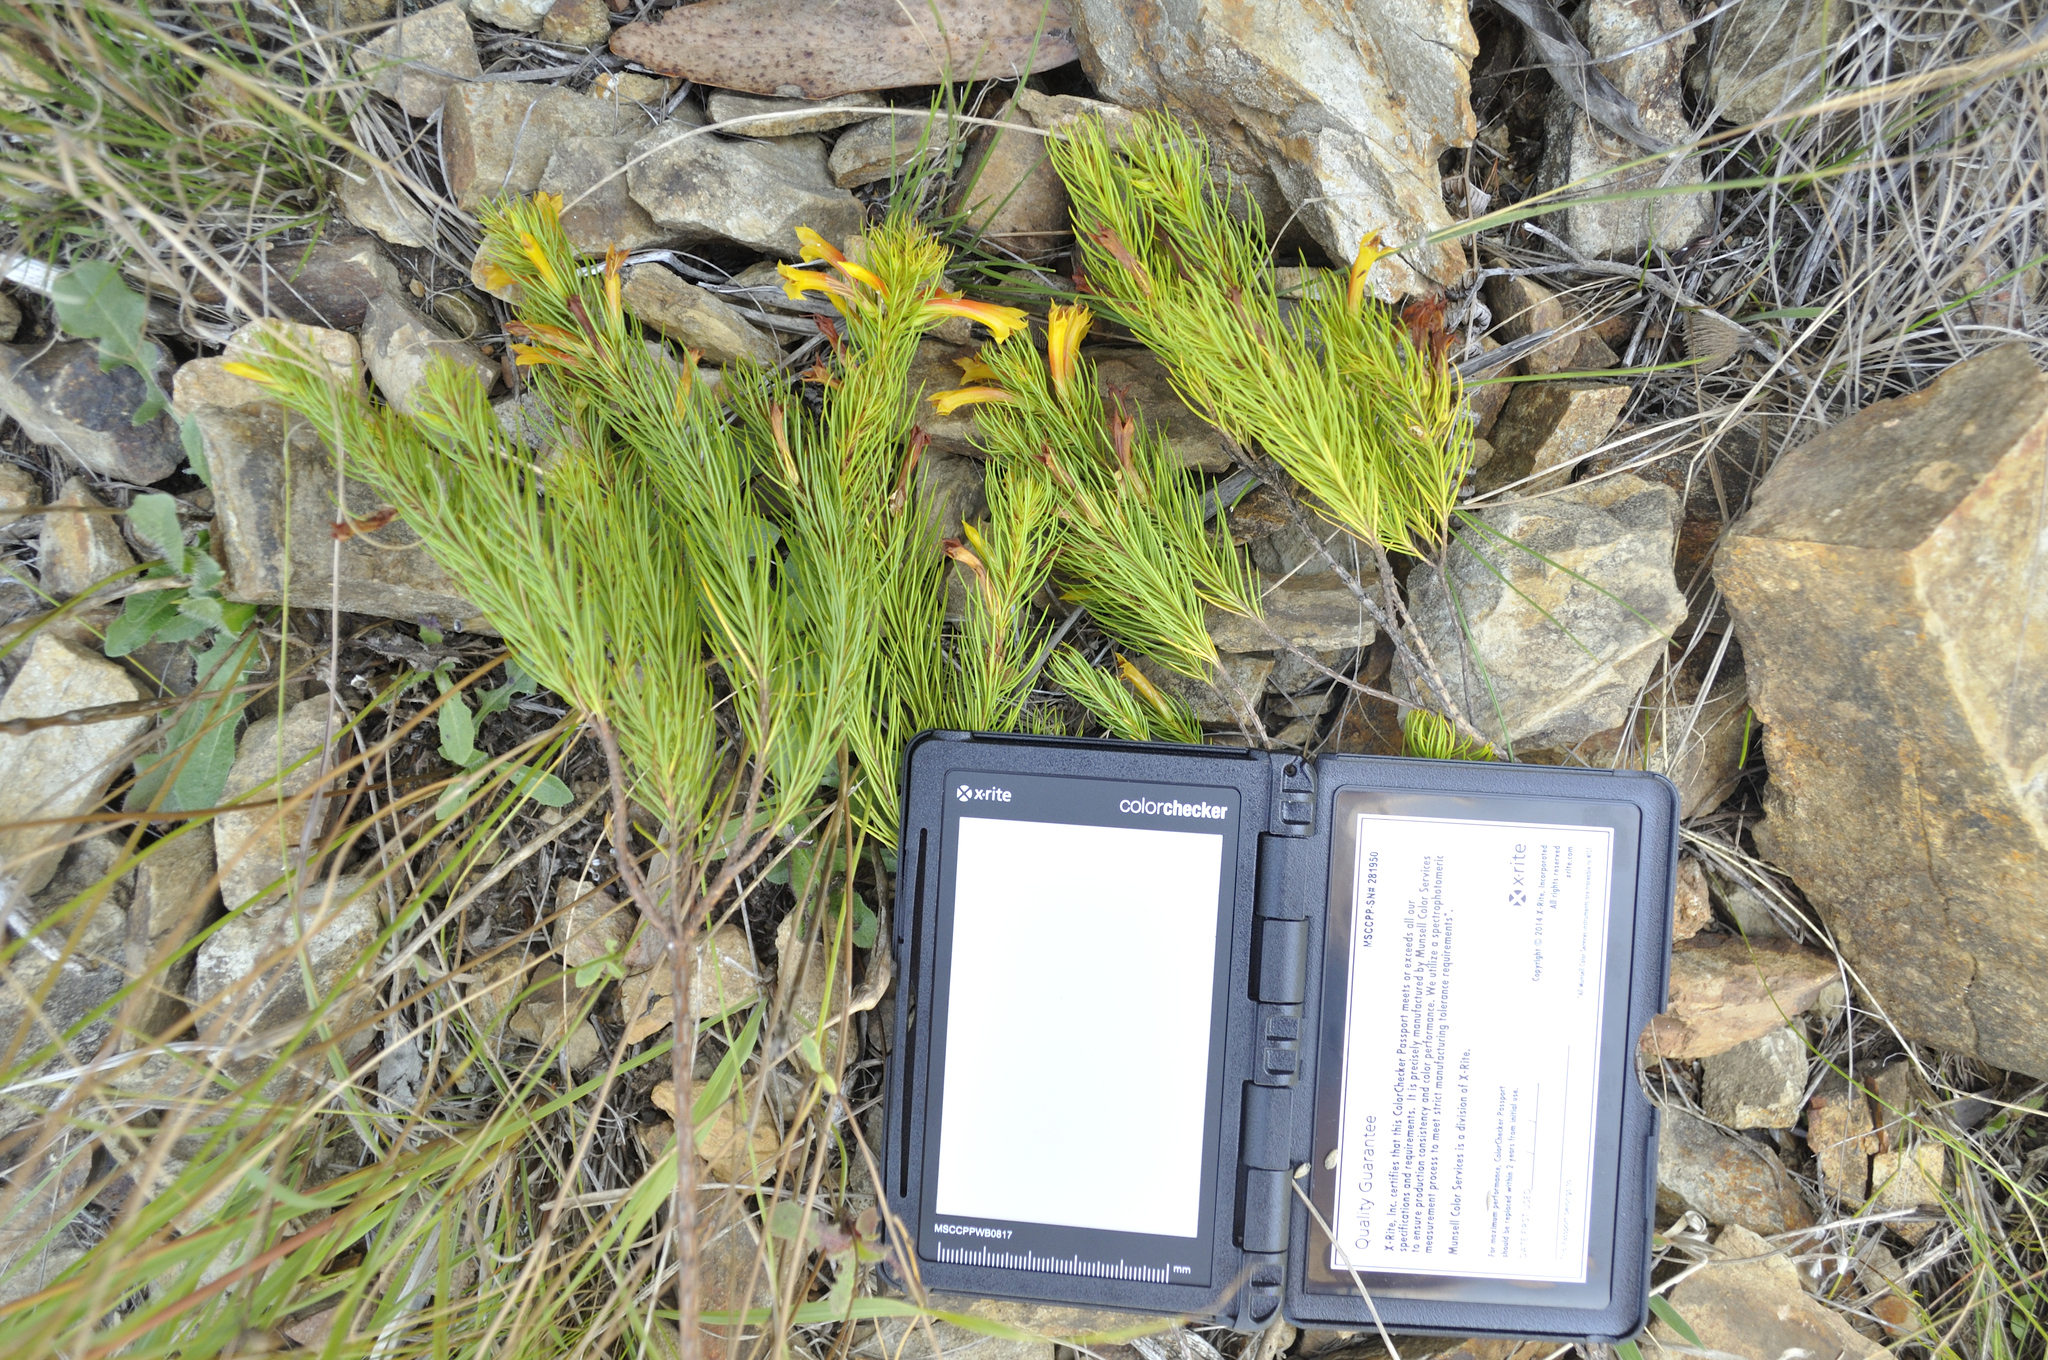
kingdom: Plantae
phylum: Tracheophyta
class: Magnoliopsida
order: Ericales
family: Ericaceae
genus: Erica
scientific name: Erica grandiflora
